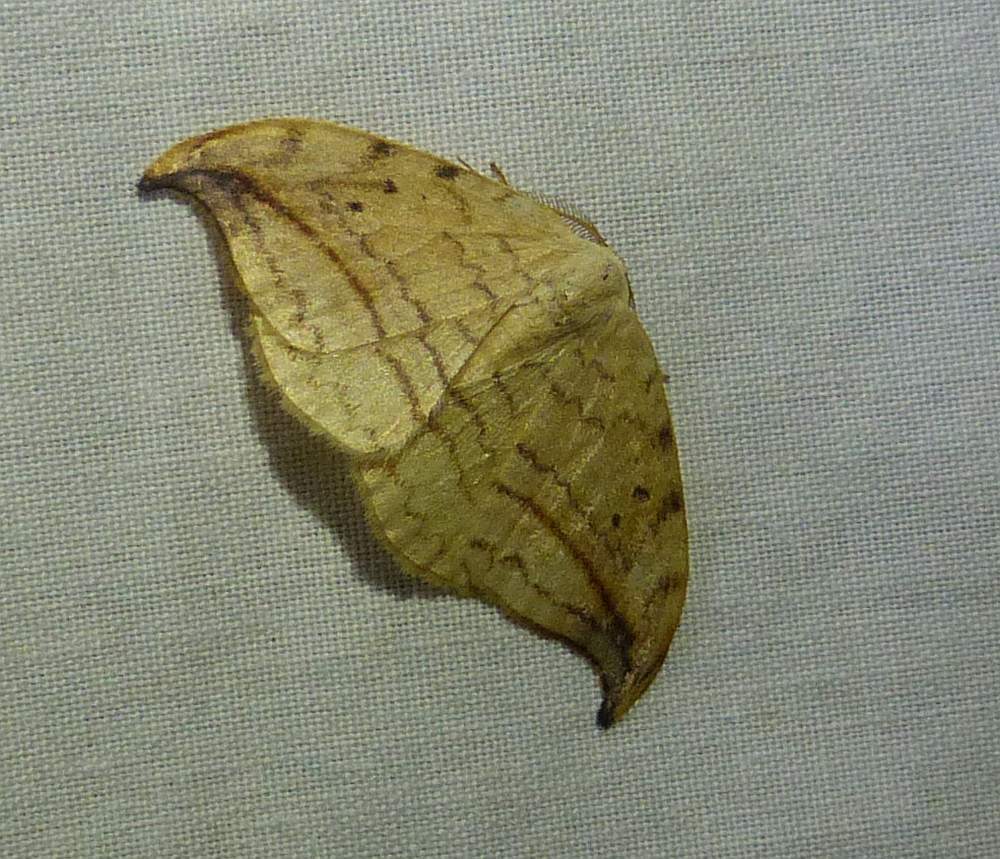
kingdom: Animalia
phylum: Arthropoda
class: Insecta
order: Lepidoptera
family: Drepanidae
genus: Drepana
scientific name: Drepana arcuata
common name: Arched hooktip moth
